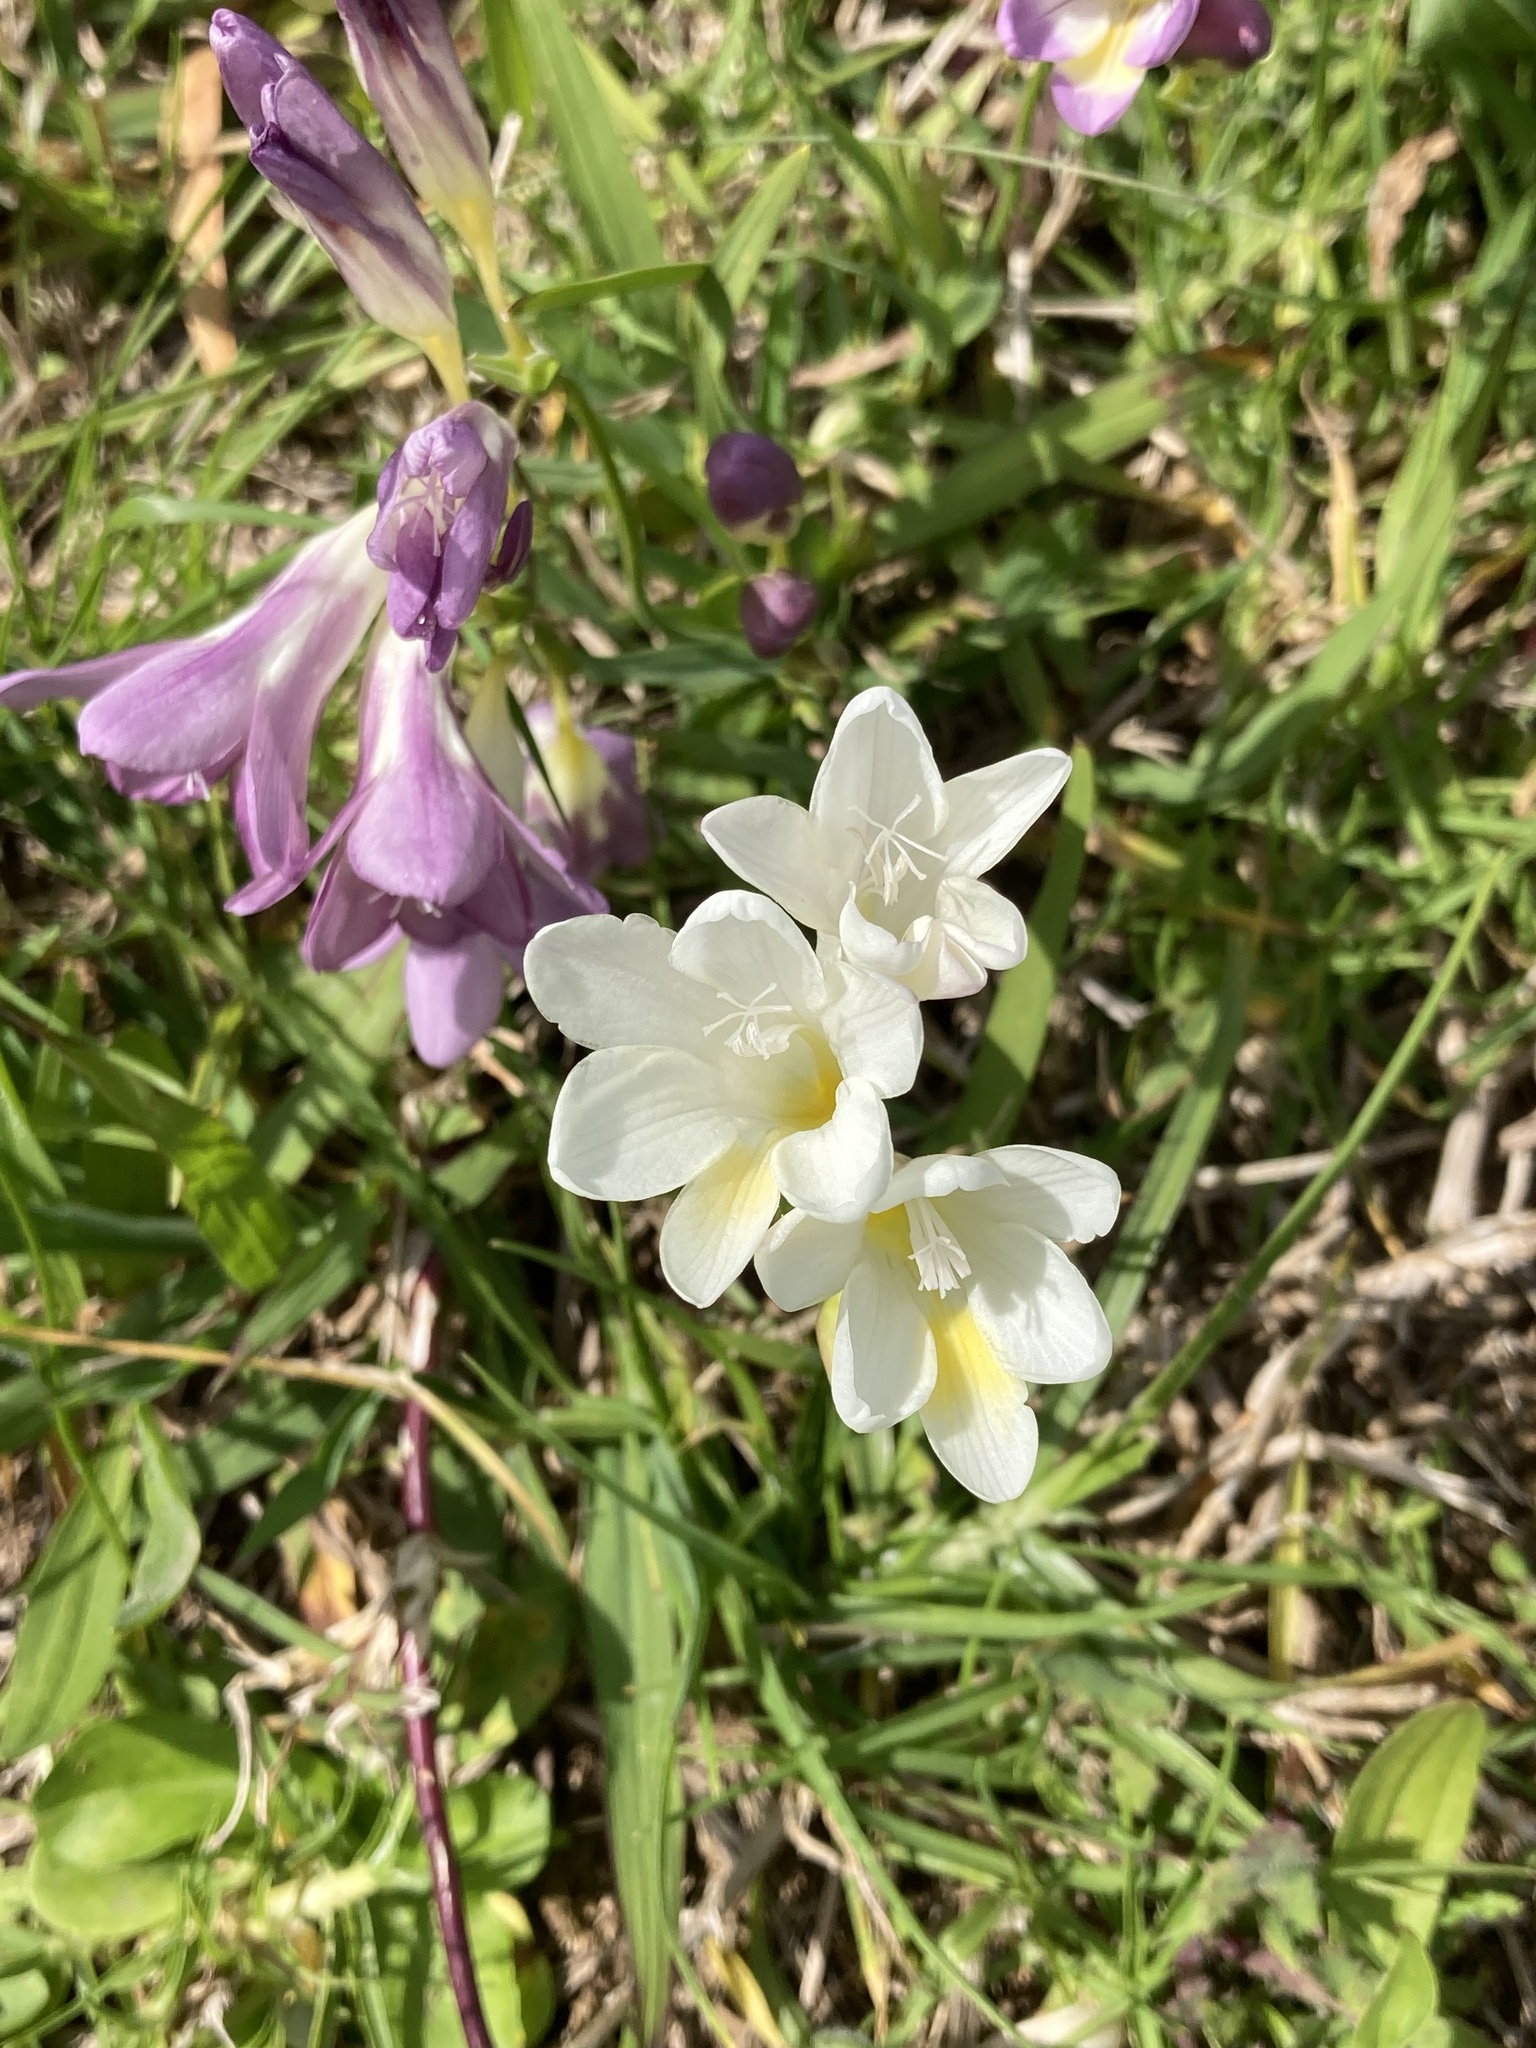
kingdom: Plantae
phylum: Tracheophyta
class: Liliopsida
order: Asparagales
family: Iridaceae
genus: Freesia
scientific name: Freesia
